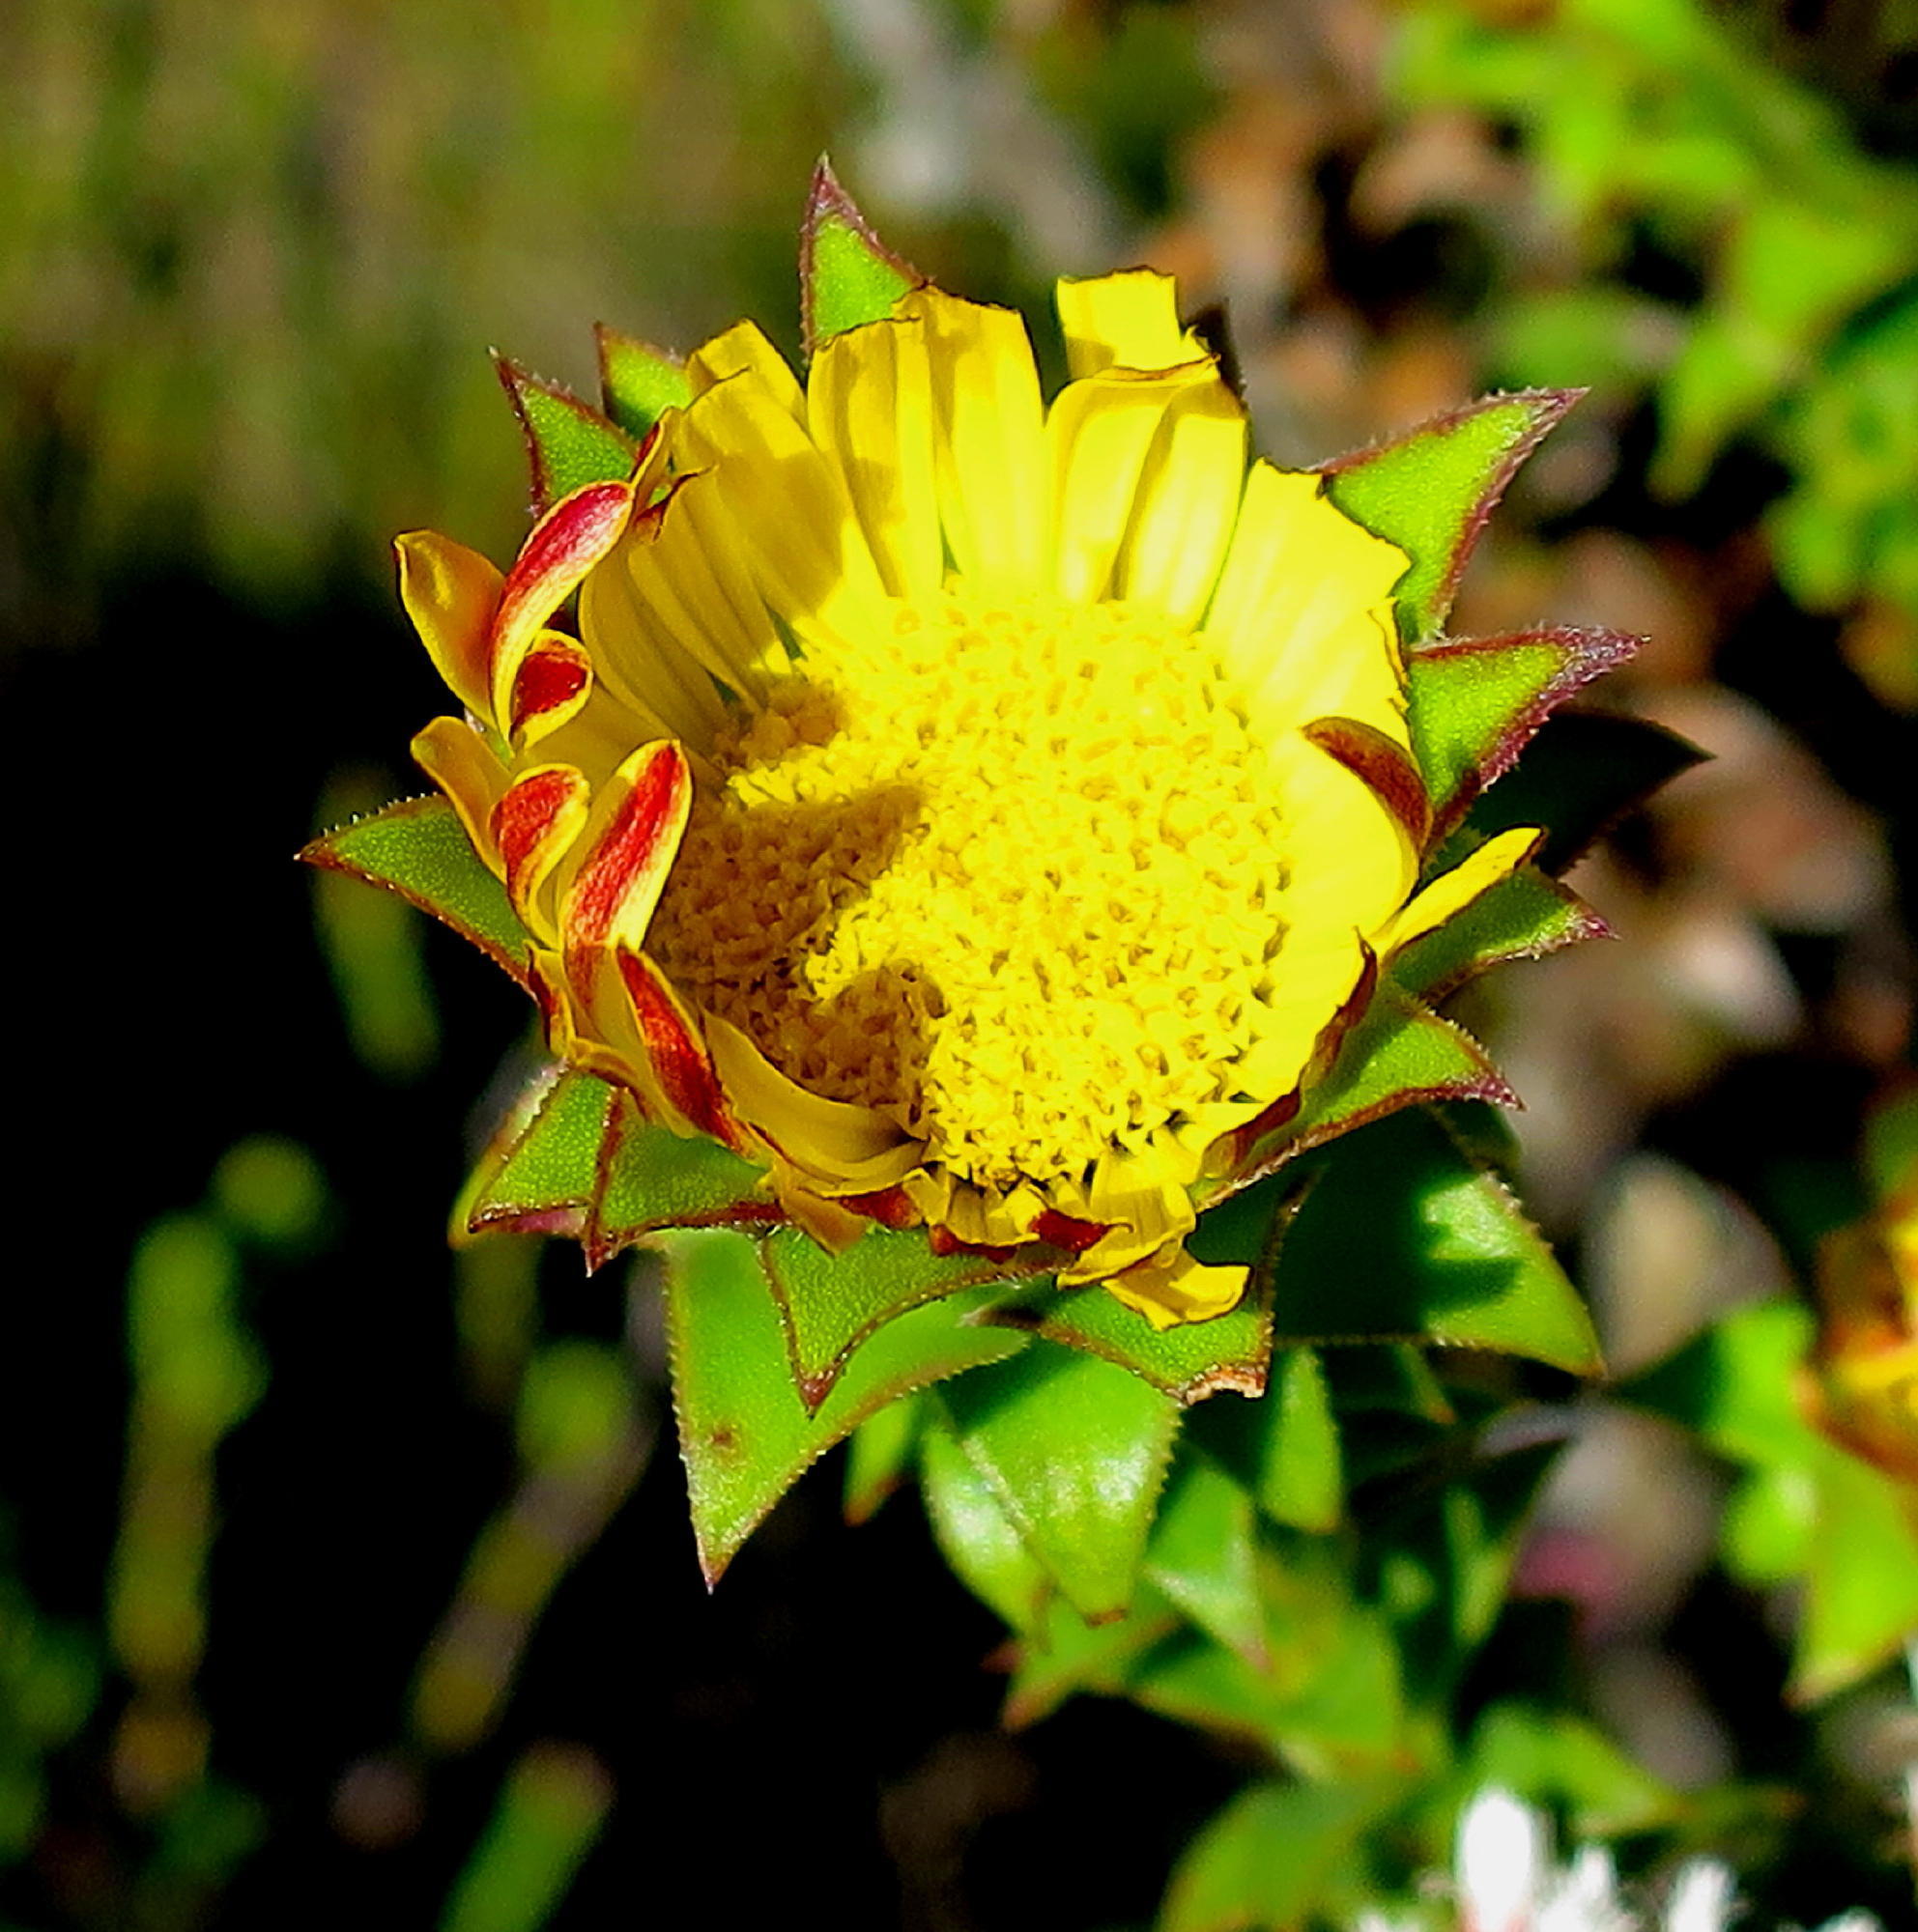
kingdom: Plantae
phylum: Tracheophyta
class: Magnoliopsida
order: Asterales
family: Asteraceae
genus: Oedera
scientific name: Oedera imbricata
